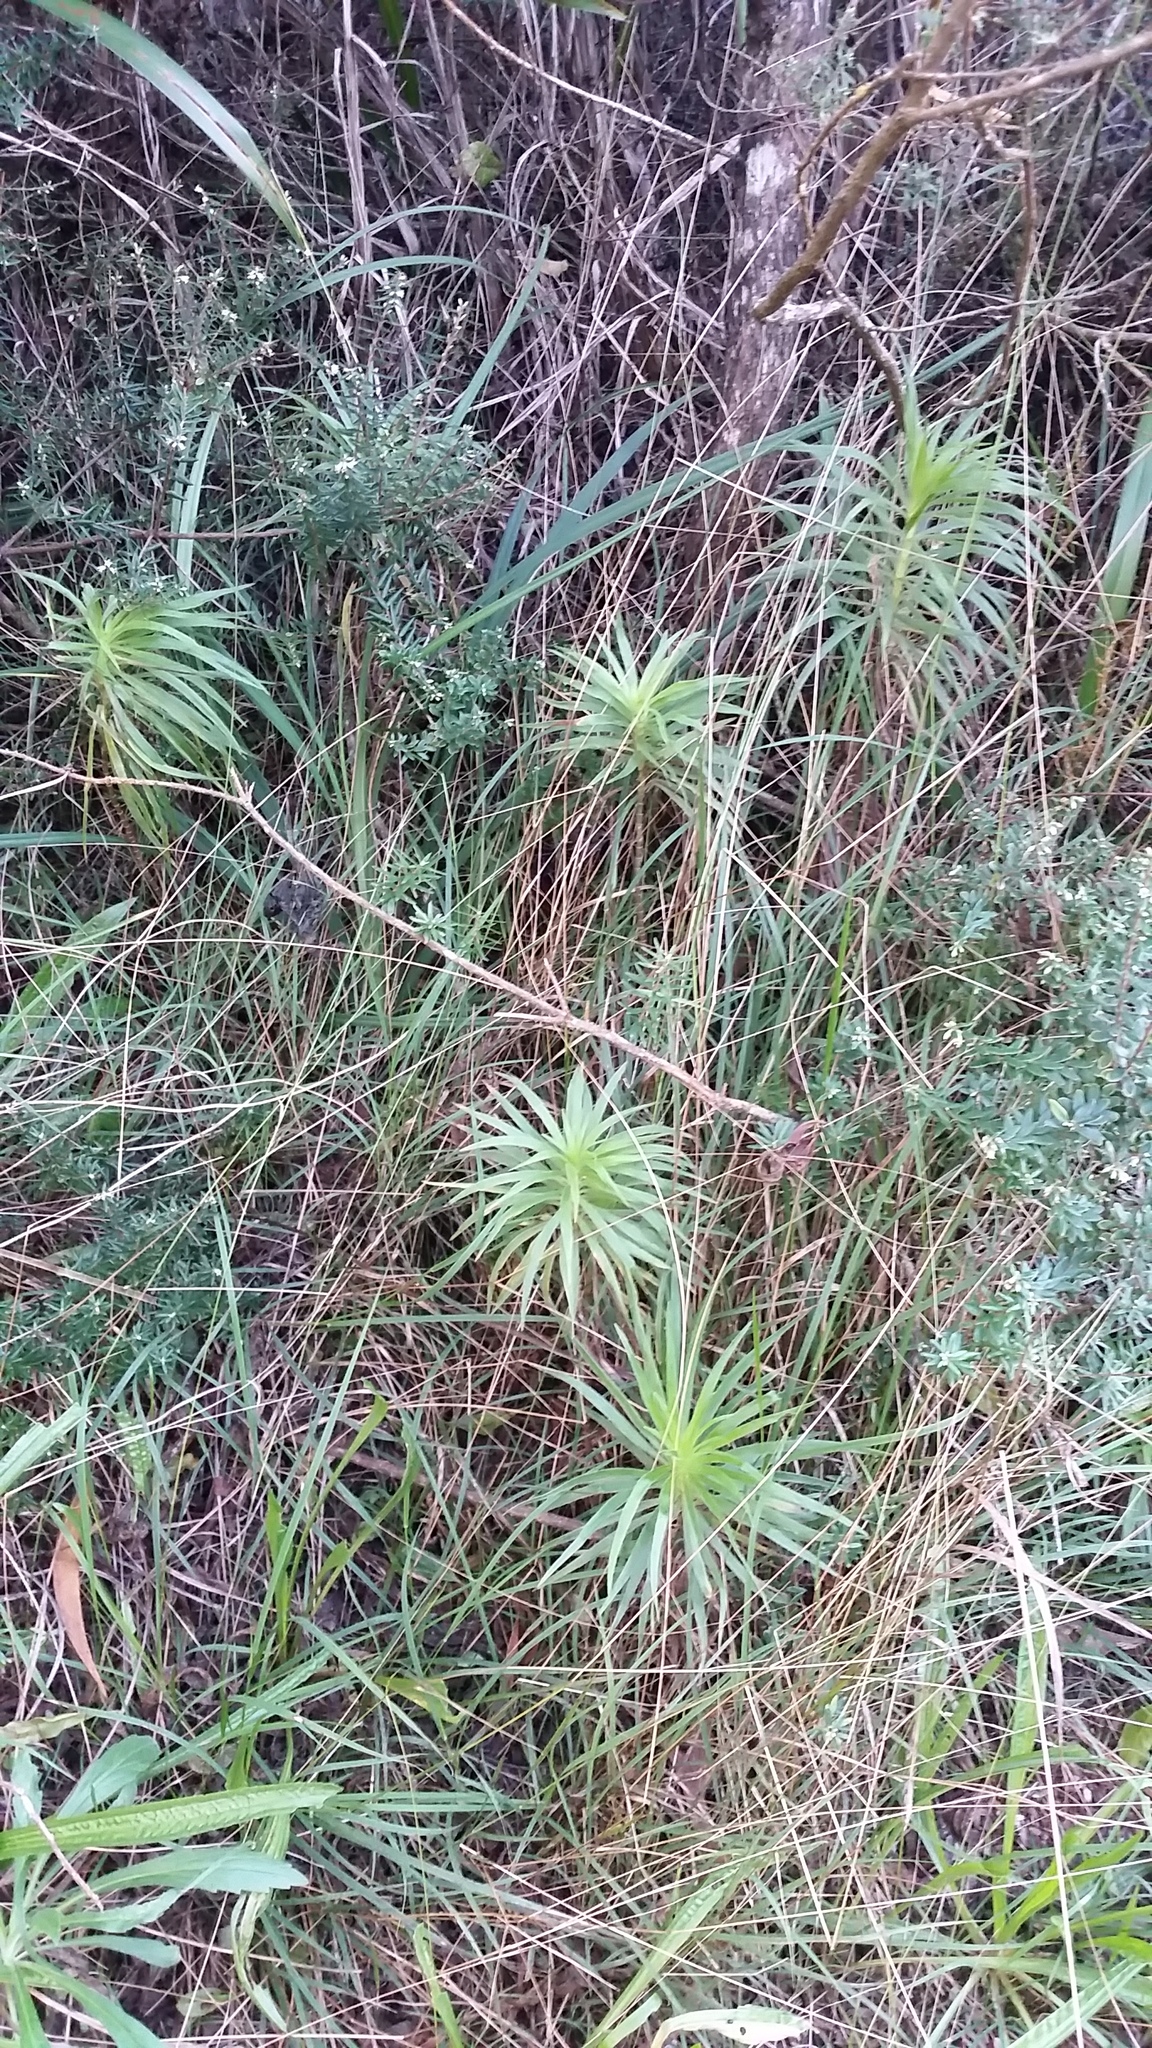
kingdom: Plantae
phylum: Tracheophyta
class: Magnoliopsida
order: Asterales
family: Asteraceae
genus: Wilkesia
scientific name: Wilkesia gymnoxiphium
